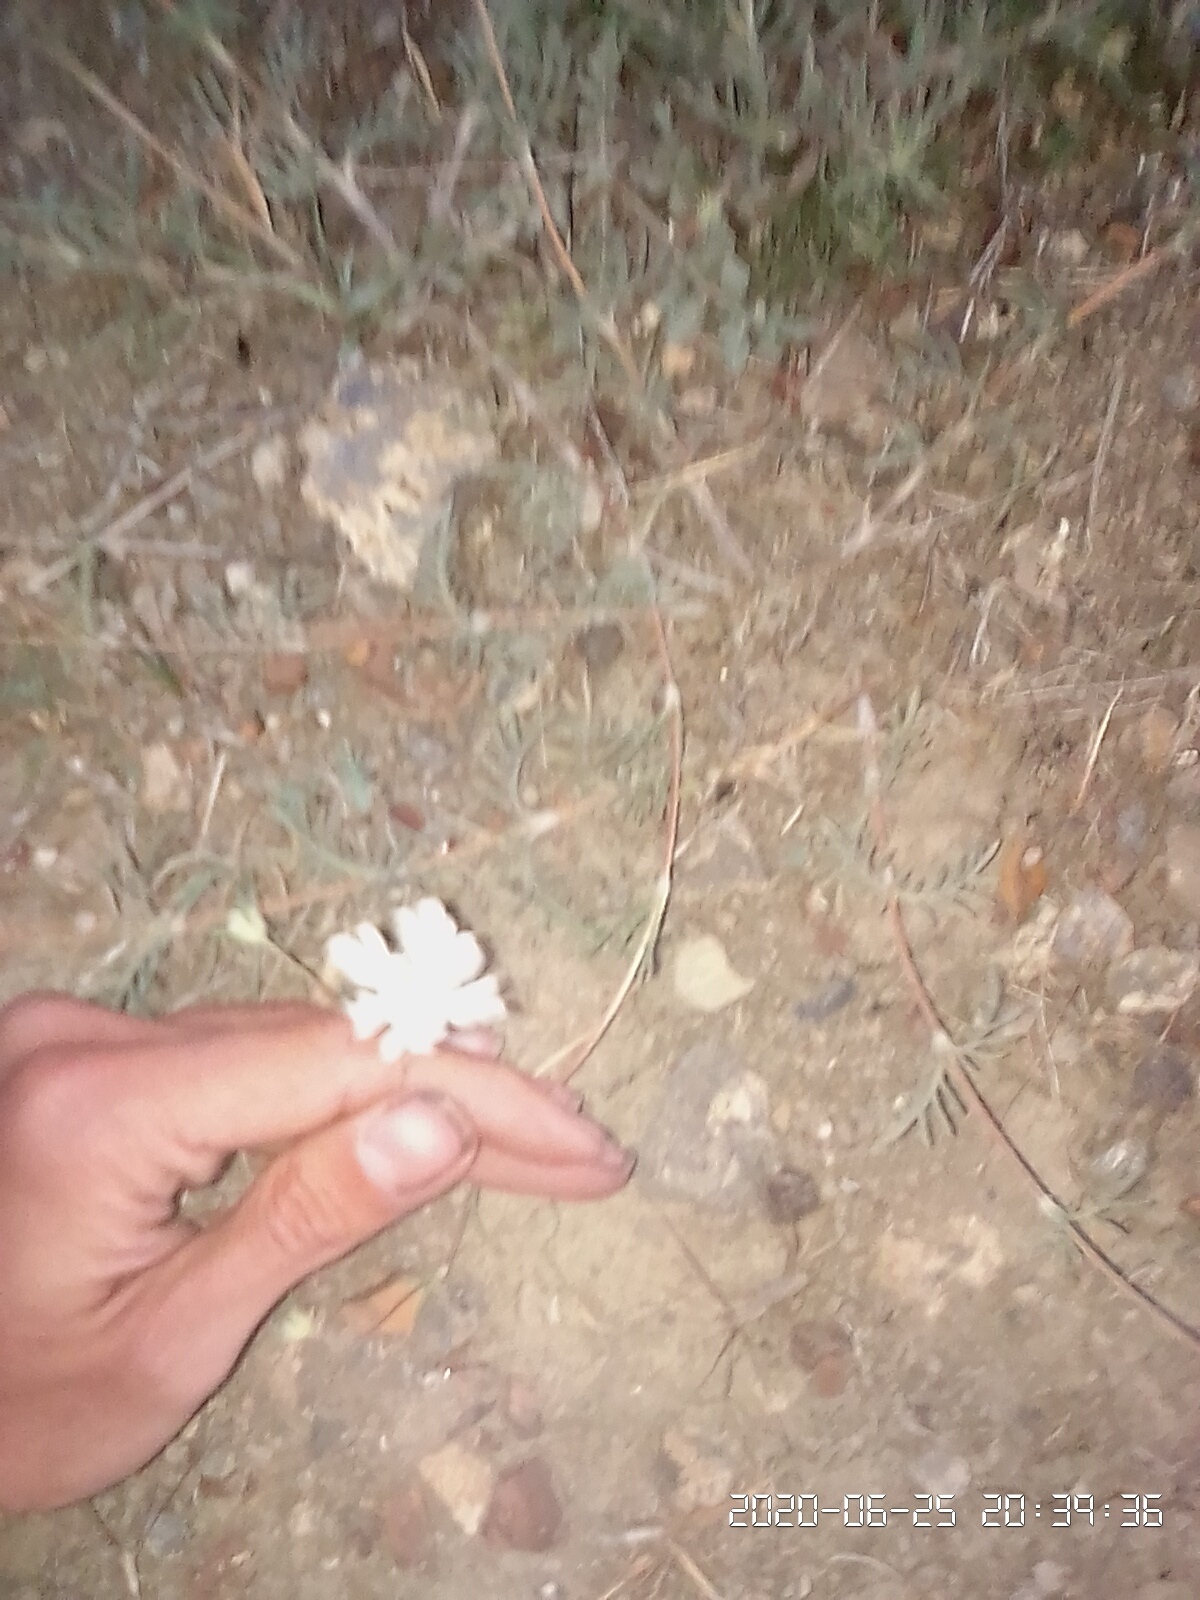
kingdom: Plantae
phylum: Tracheophyta
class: Magnoliopsida
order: Dipsacales
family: Caprifoliaceae
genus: Lomelosia
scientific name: Lomelosia argentea
